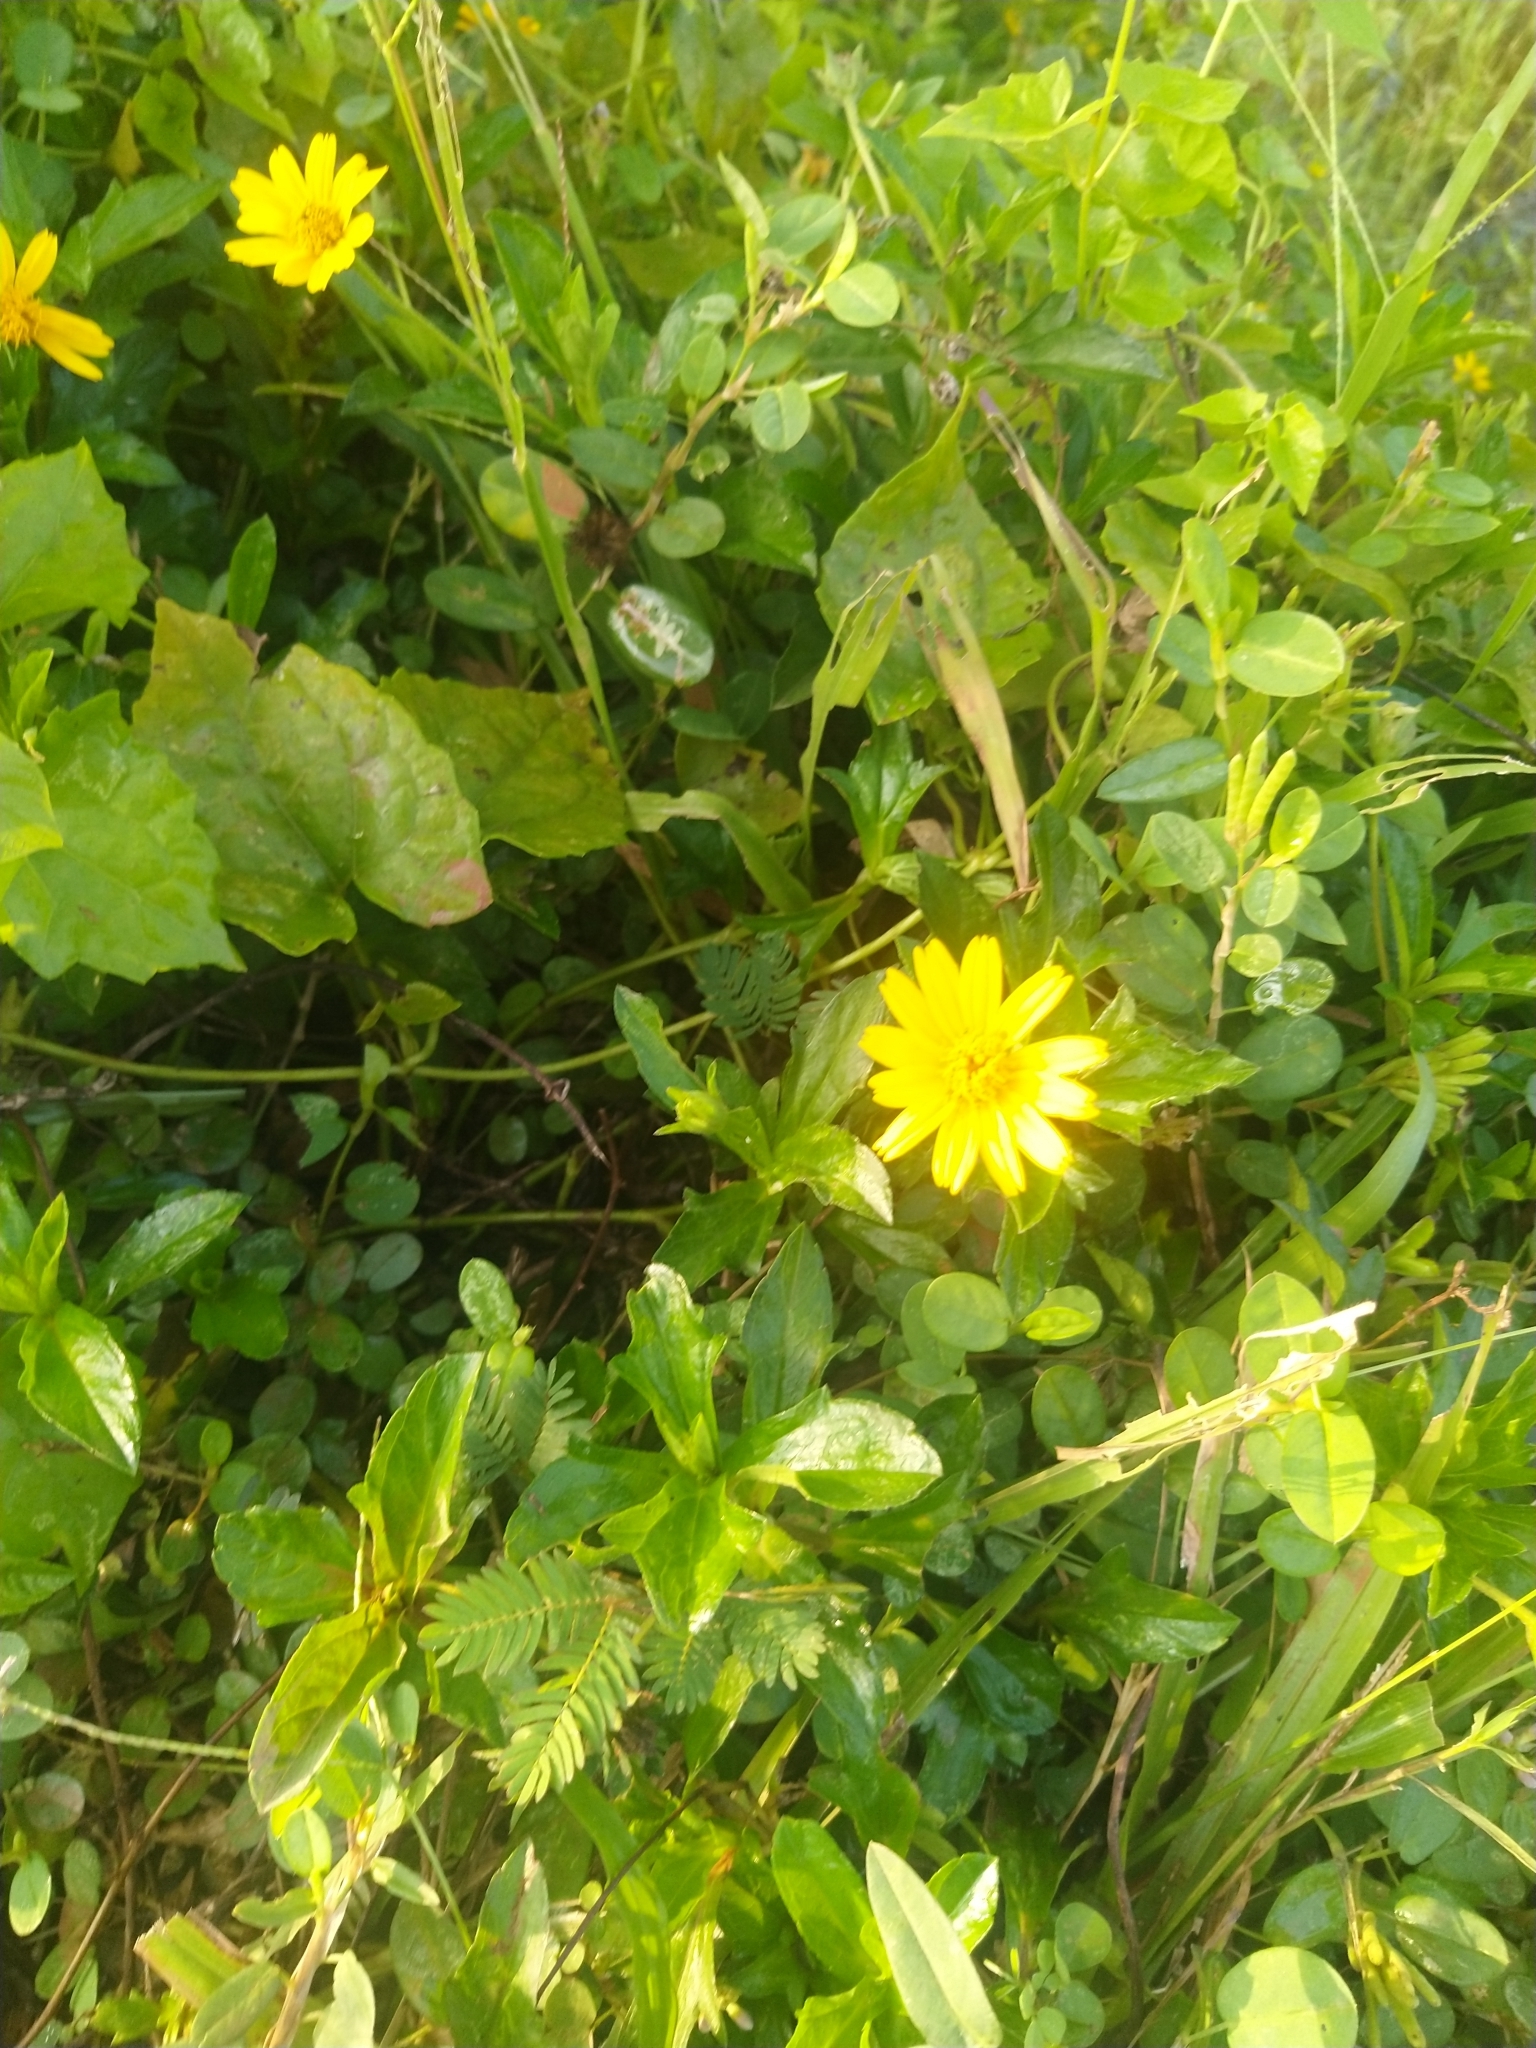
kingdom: Plantae
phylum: Tracheophyta
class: Magnoliopsida
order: Asterales
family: Asteraceae
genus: Sphagneticola
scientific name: Sphagneticola trilobata
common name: Bay biscayne creeping-oxeye
